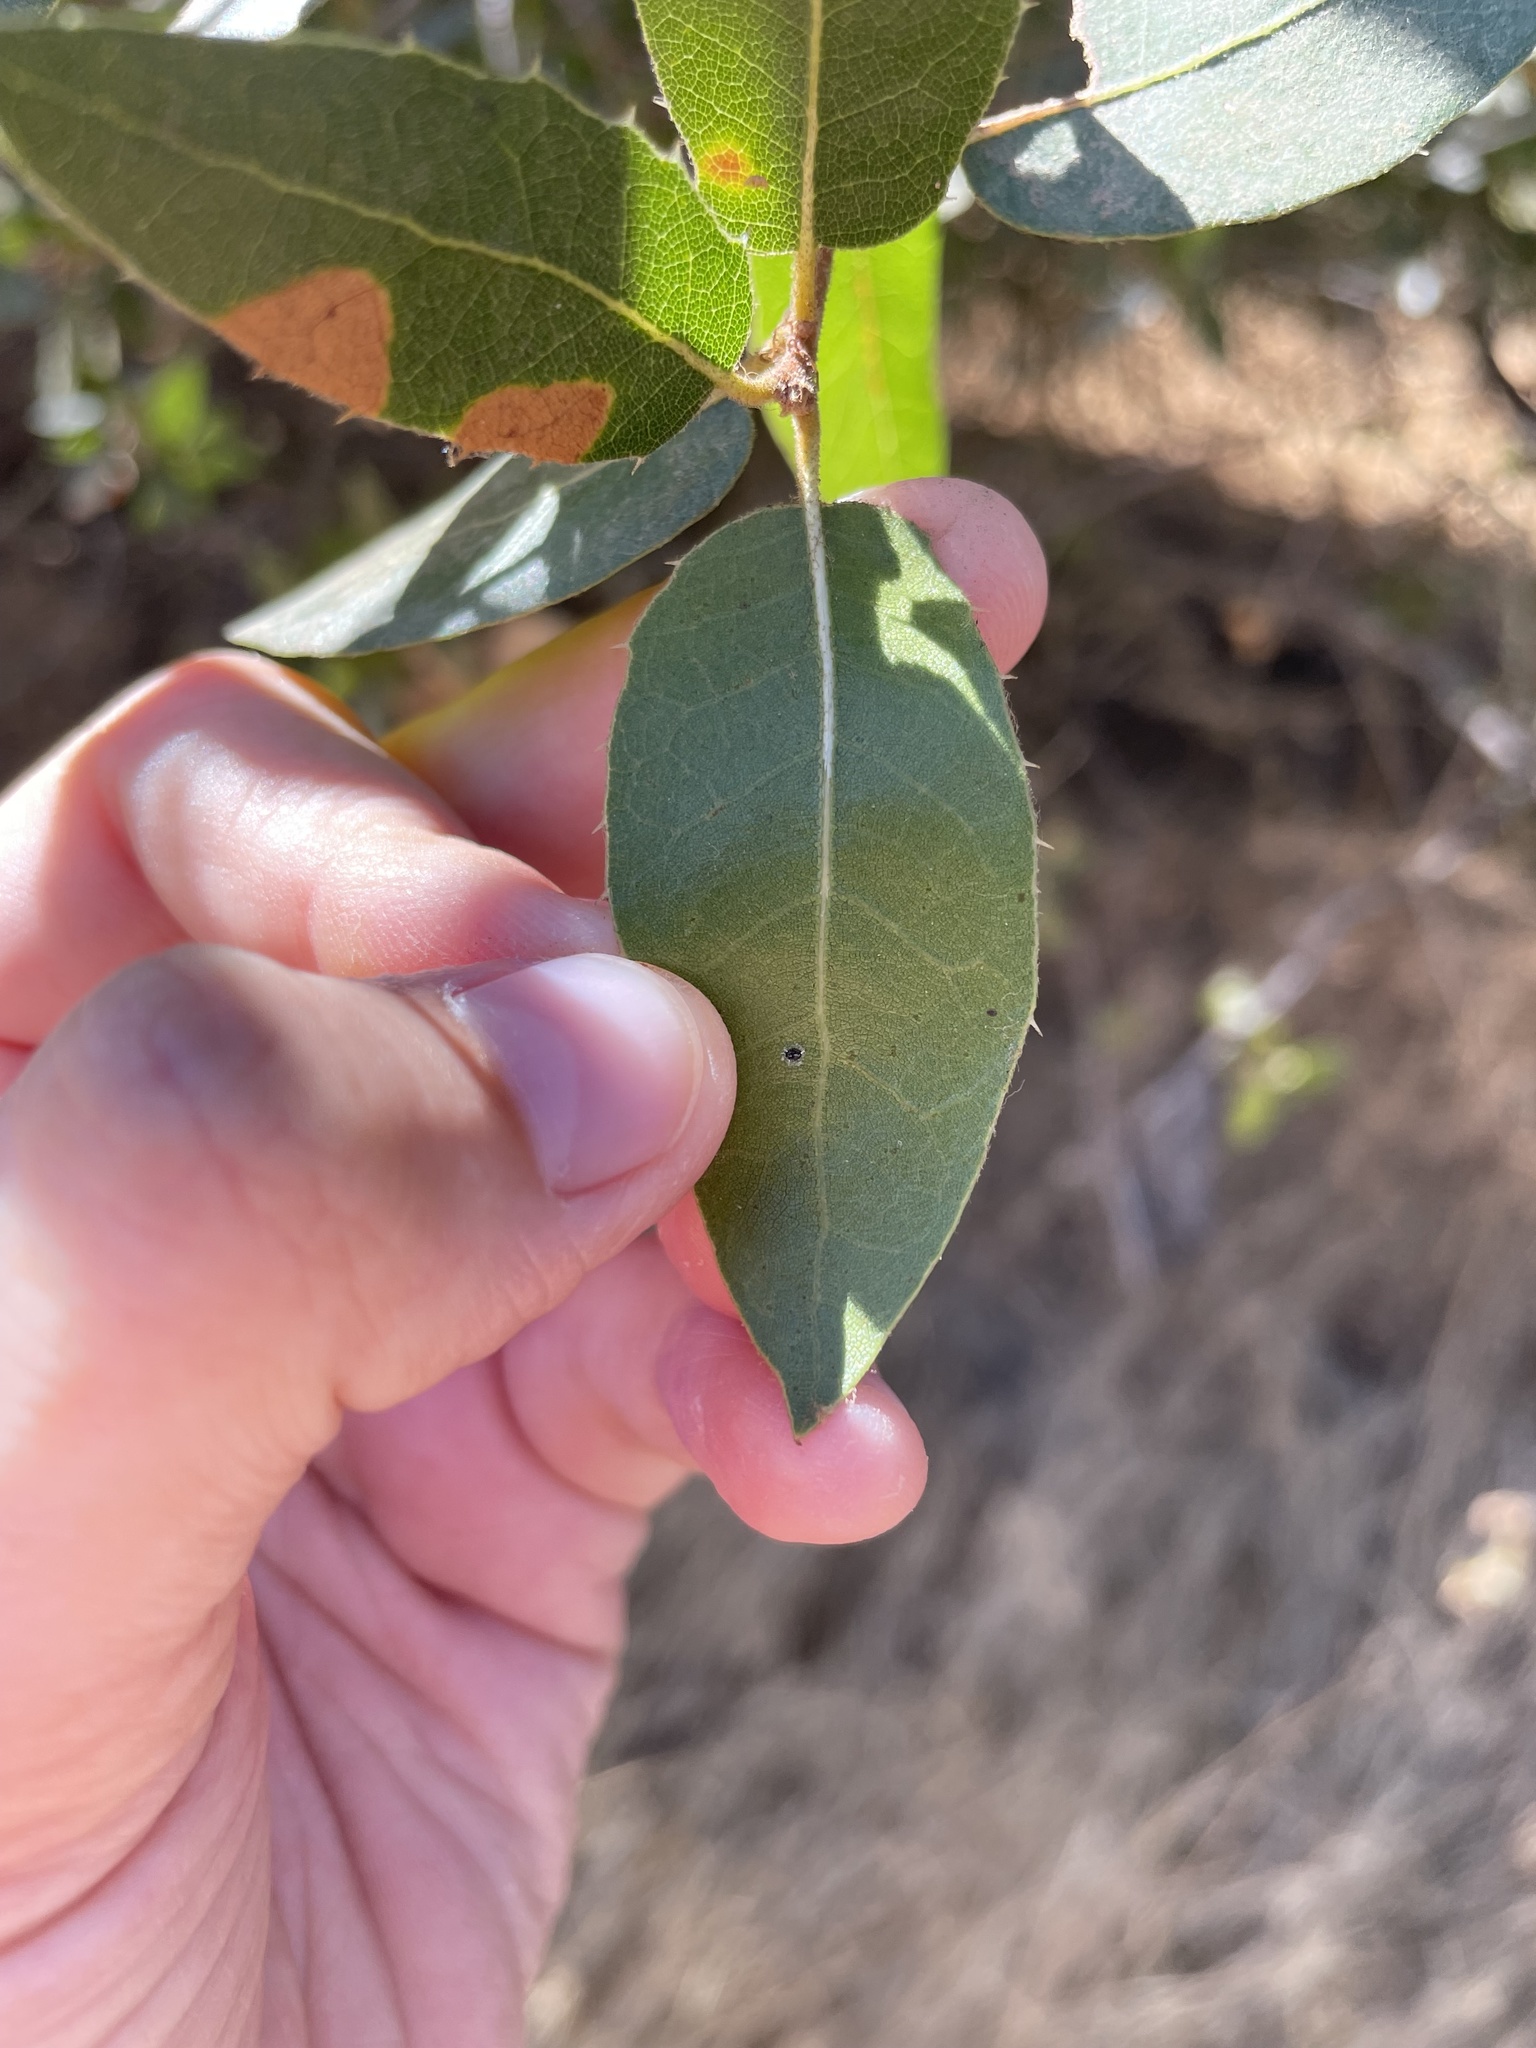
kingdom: Plantae
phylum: Tracheophyta
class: Magnoliopsida
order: Fagales
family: Fagaceae
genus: Quercus
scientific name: Quercus wislizeni
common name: Interior live oak
